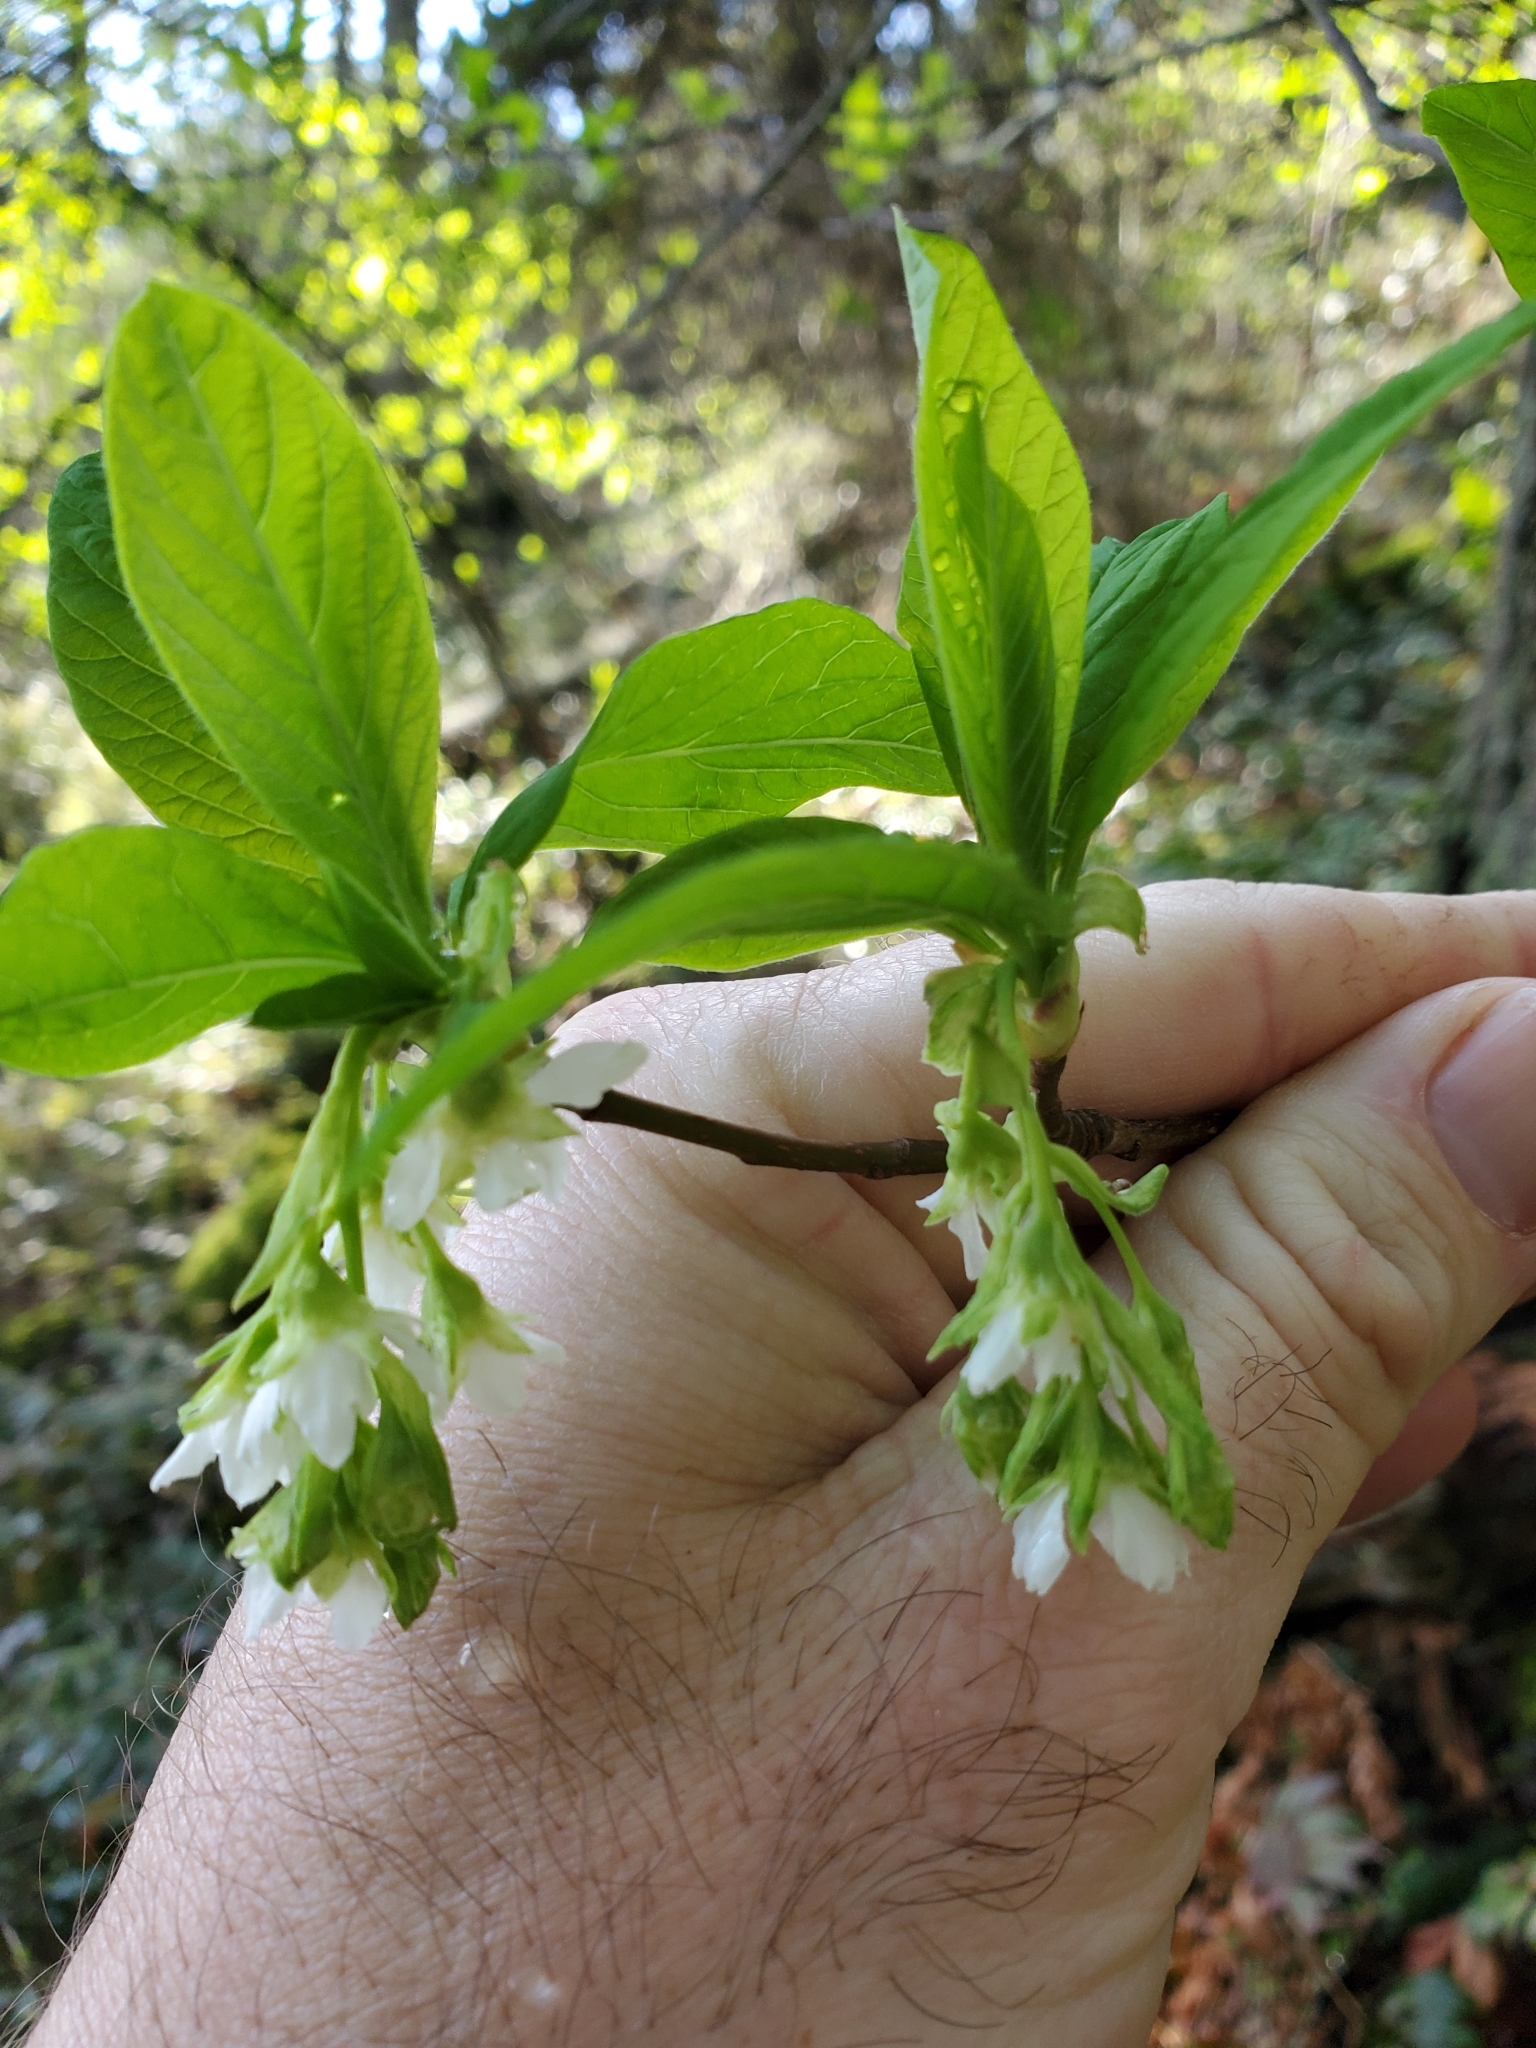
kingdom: Plantae
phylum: Tracheophyta
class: Magnoliopsida
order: Rosales
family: Rosaceae
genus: Oemleria
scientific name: Oemleria cerasiformis
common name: Osoberry
